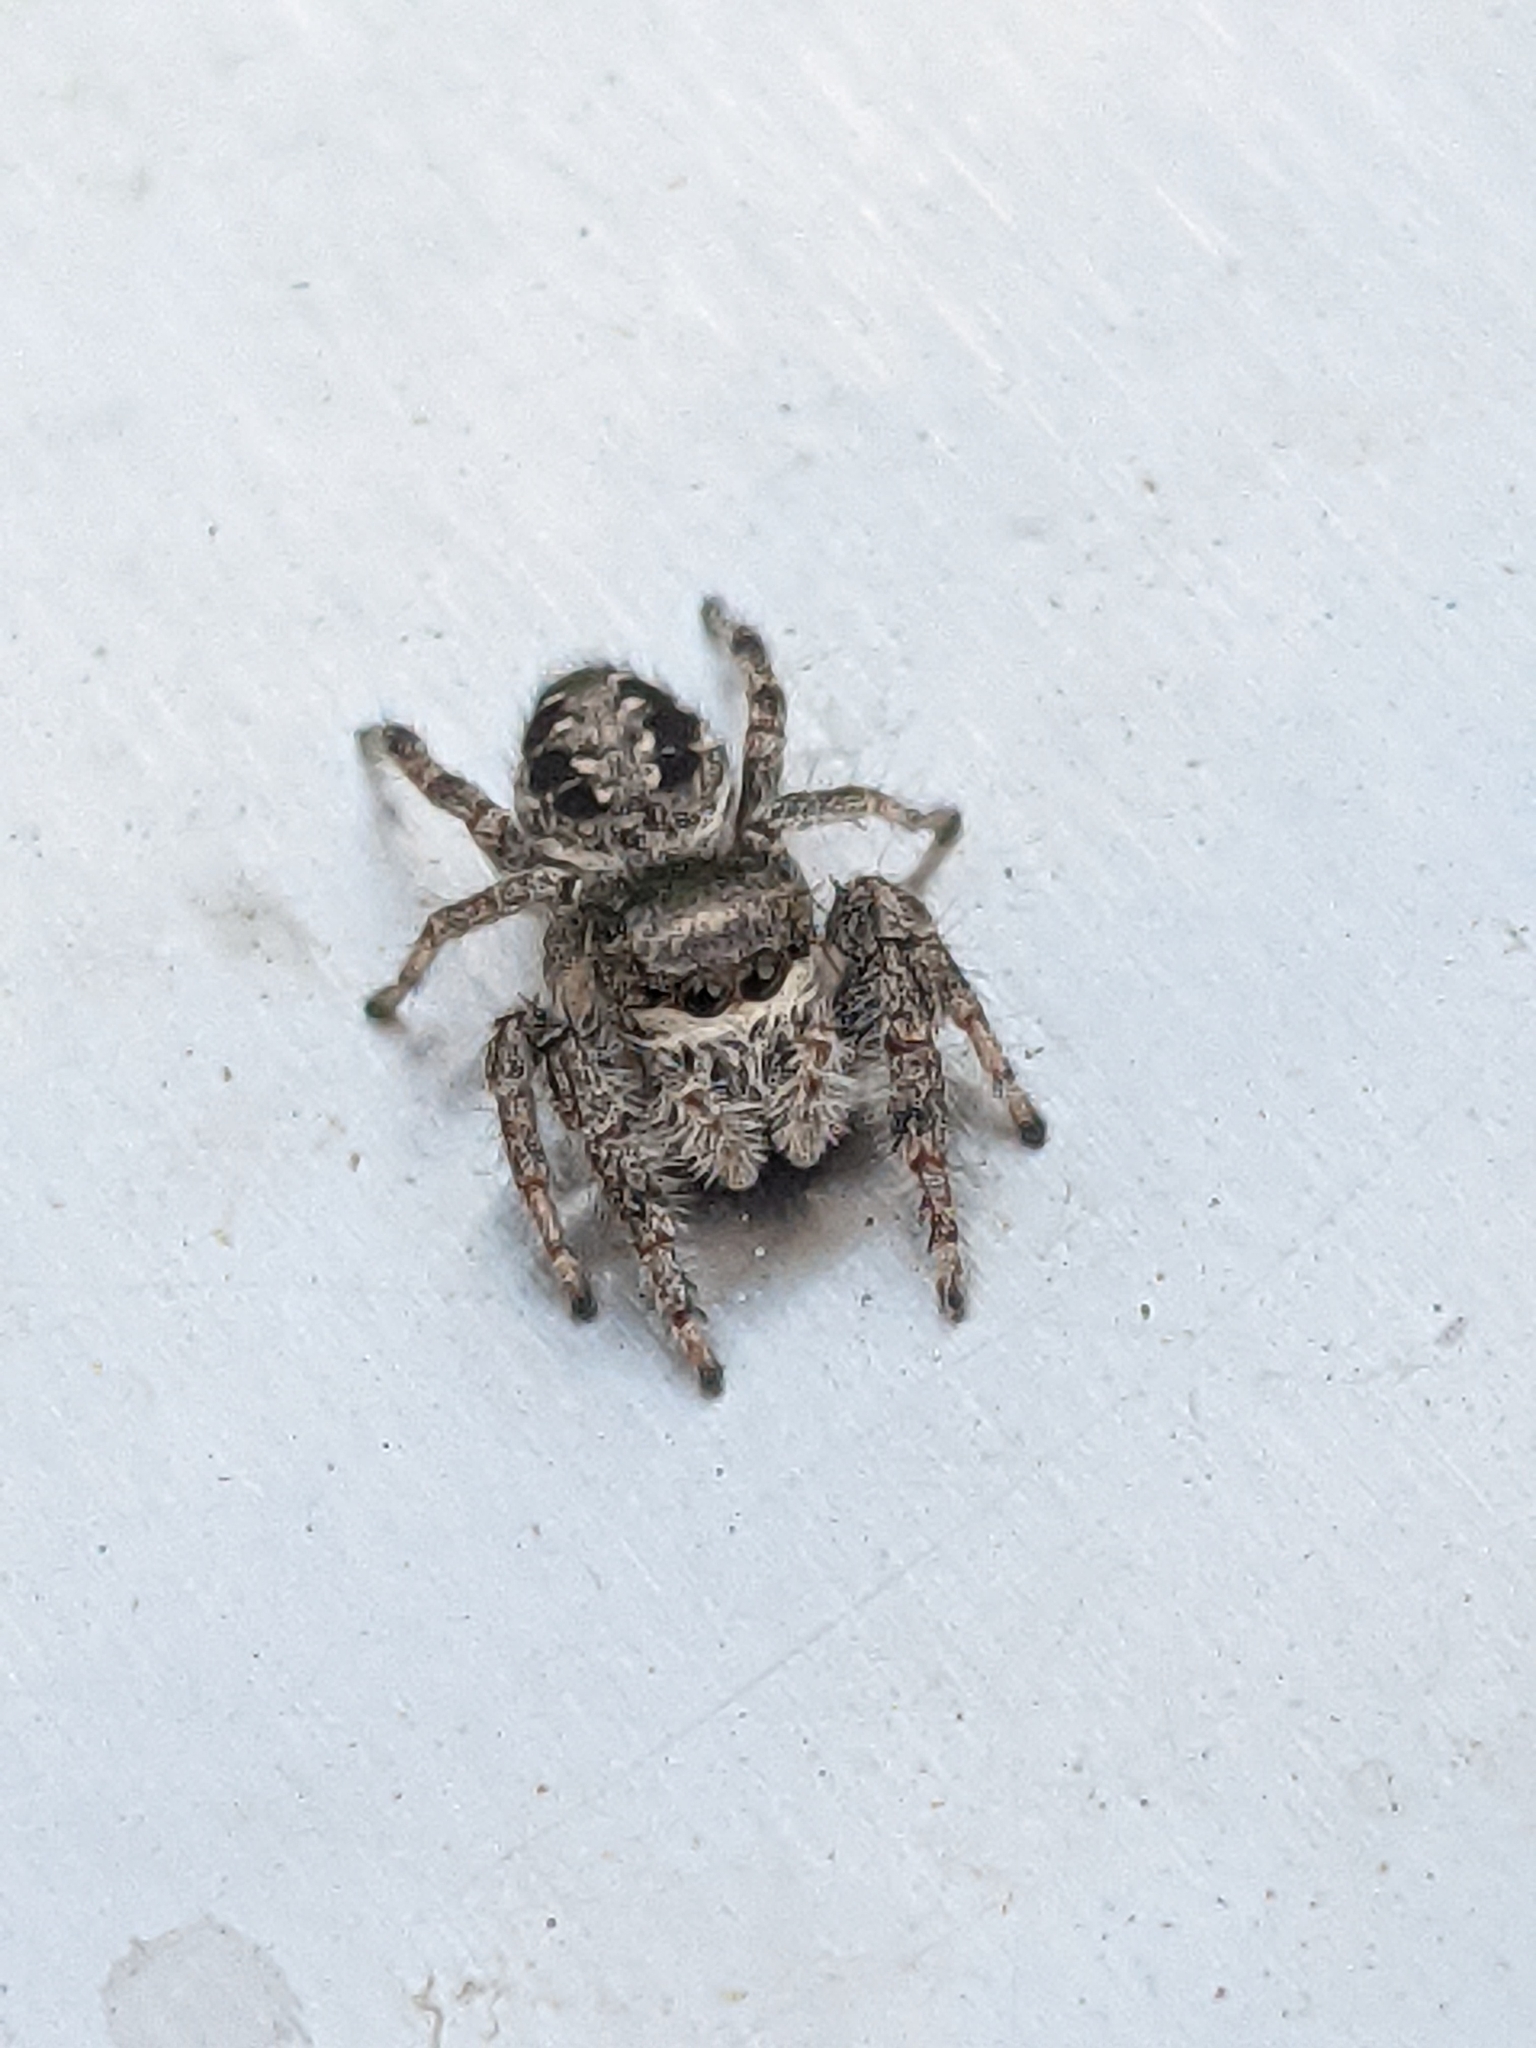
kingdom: Animalia
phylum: Arthropoda
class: Arachnida
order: Araneae
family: Salticidae
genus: Eris
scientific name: Eris militaris
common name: Bronze jumper
